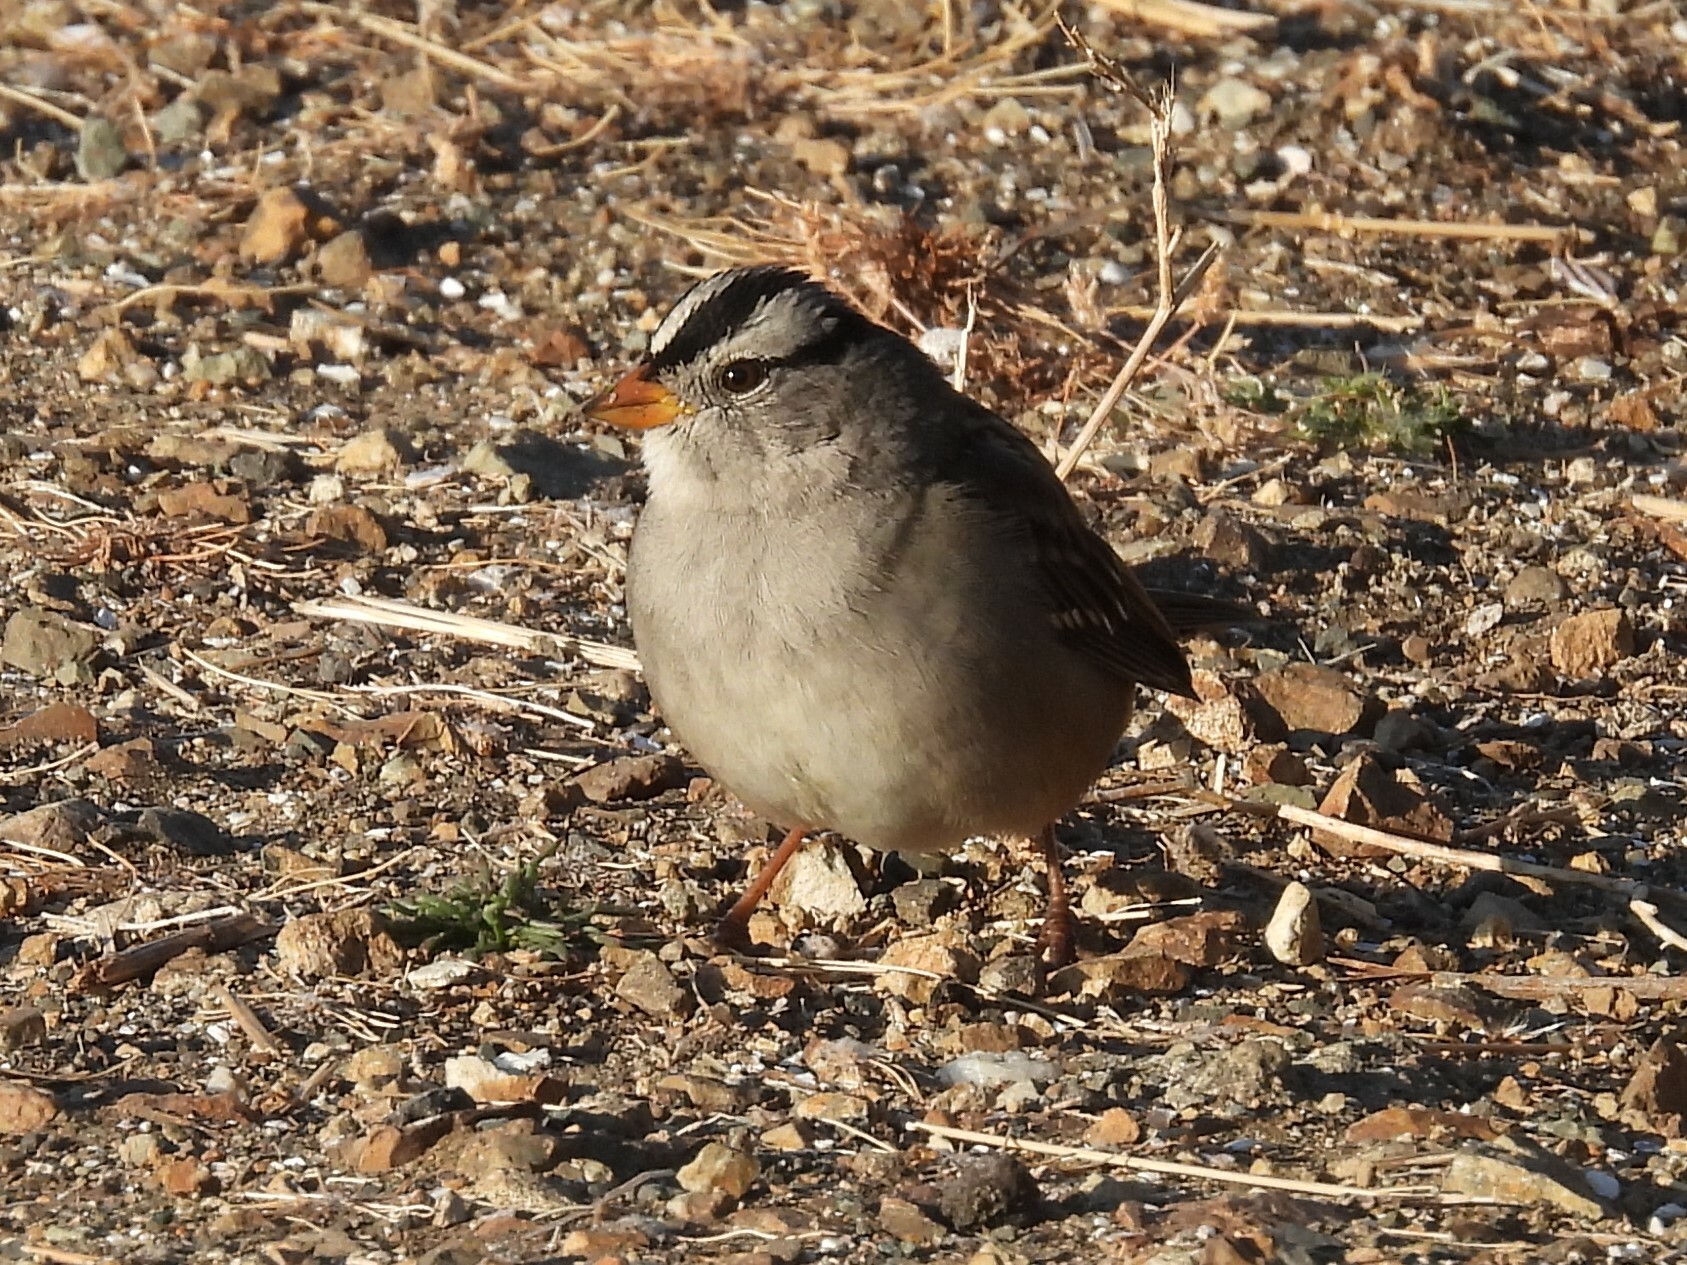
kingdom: Animalia
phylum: Chordata
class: Aves
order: Passeriformes
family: Passerellidae
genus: Zonotrichia
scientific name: Zonotrichia leucophrys
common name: White-crowned sparrow
